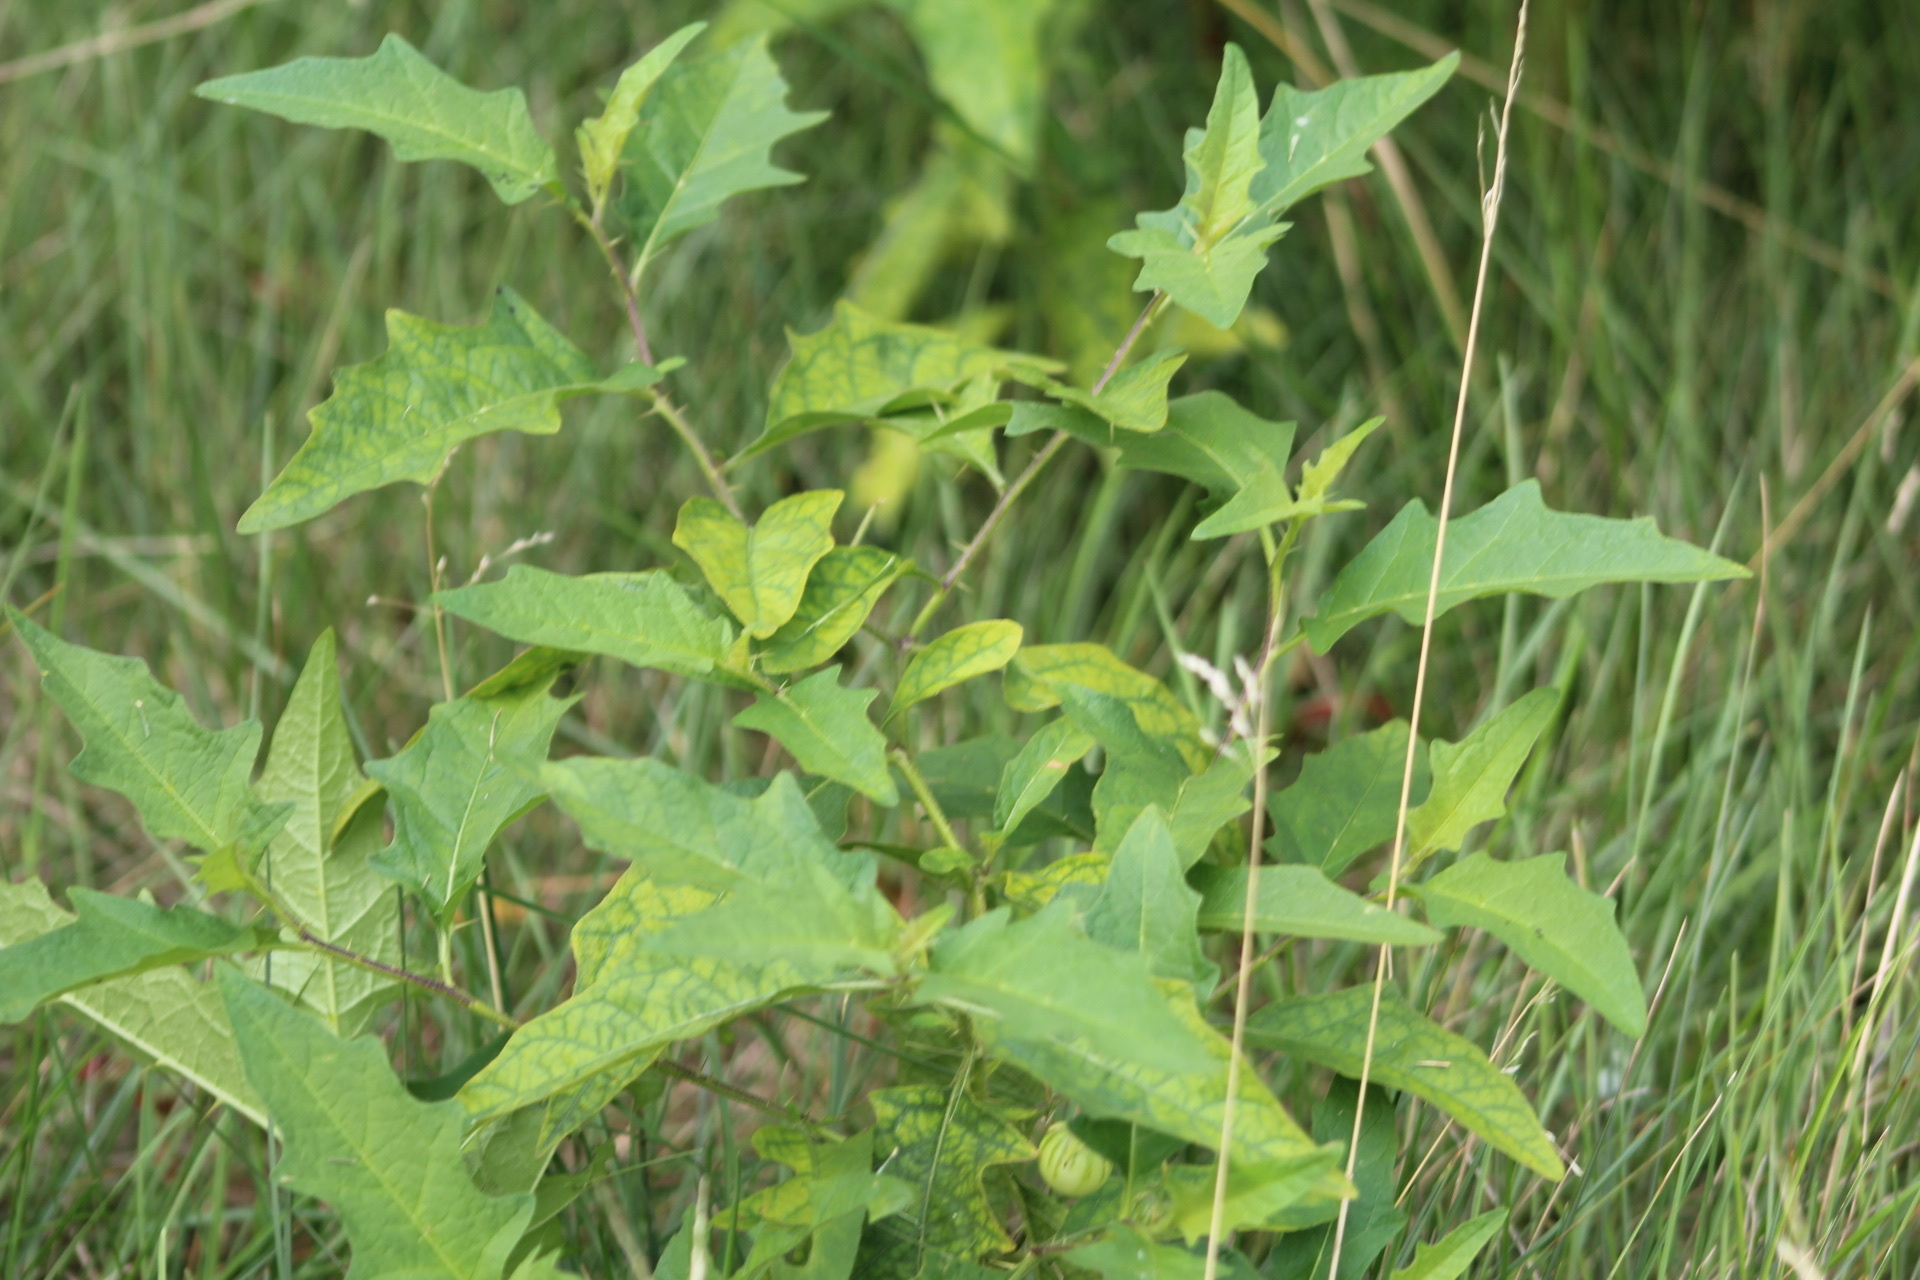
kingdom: Plantae
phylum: Tracheophyta
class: Magnoliopsida
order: Solanales
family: Solanaceae
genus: Solanum
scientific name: Solanum carolinense
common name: Horse-nettle
